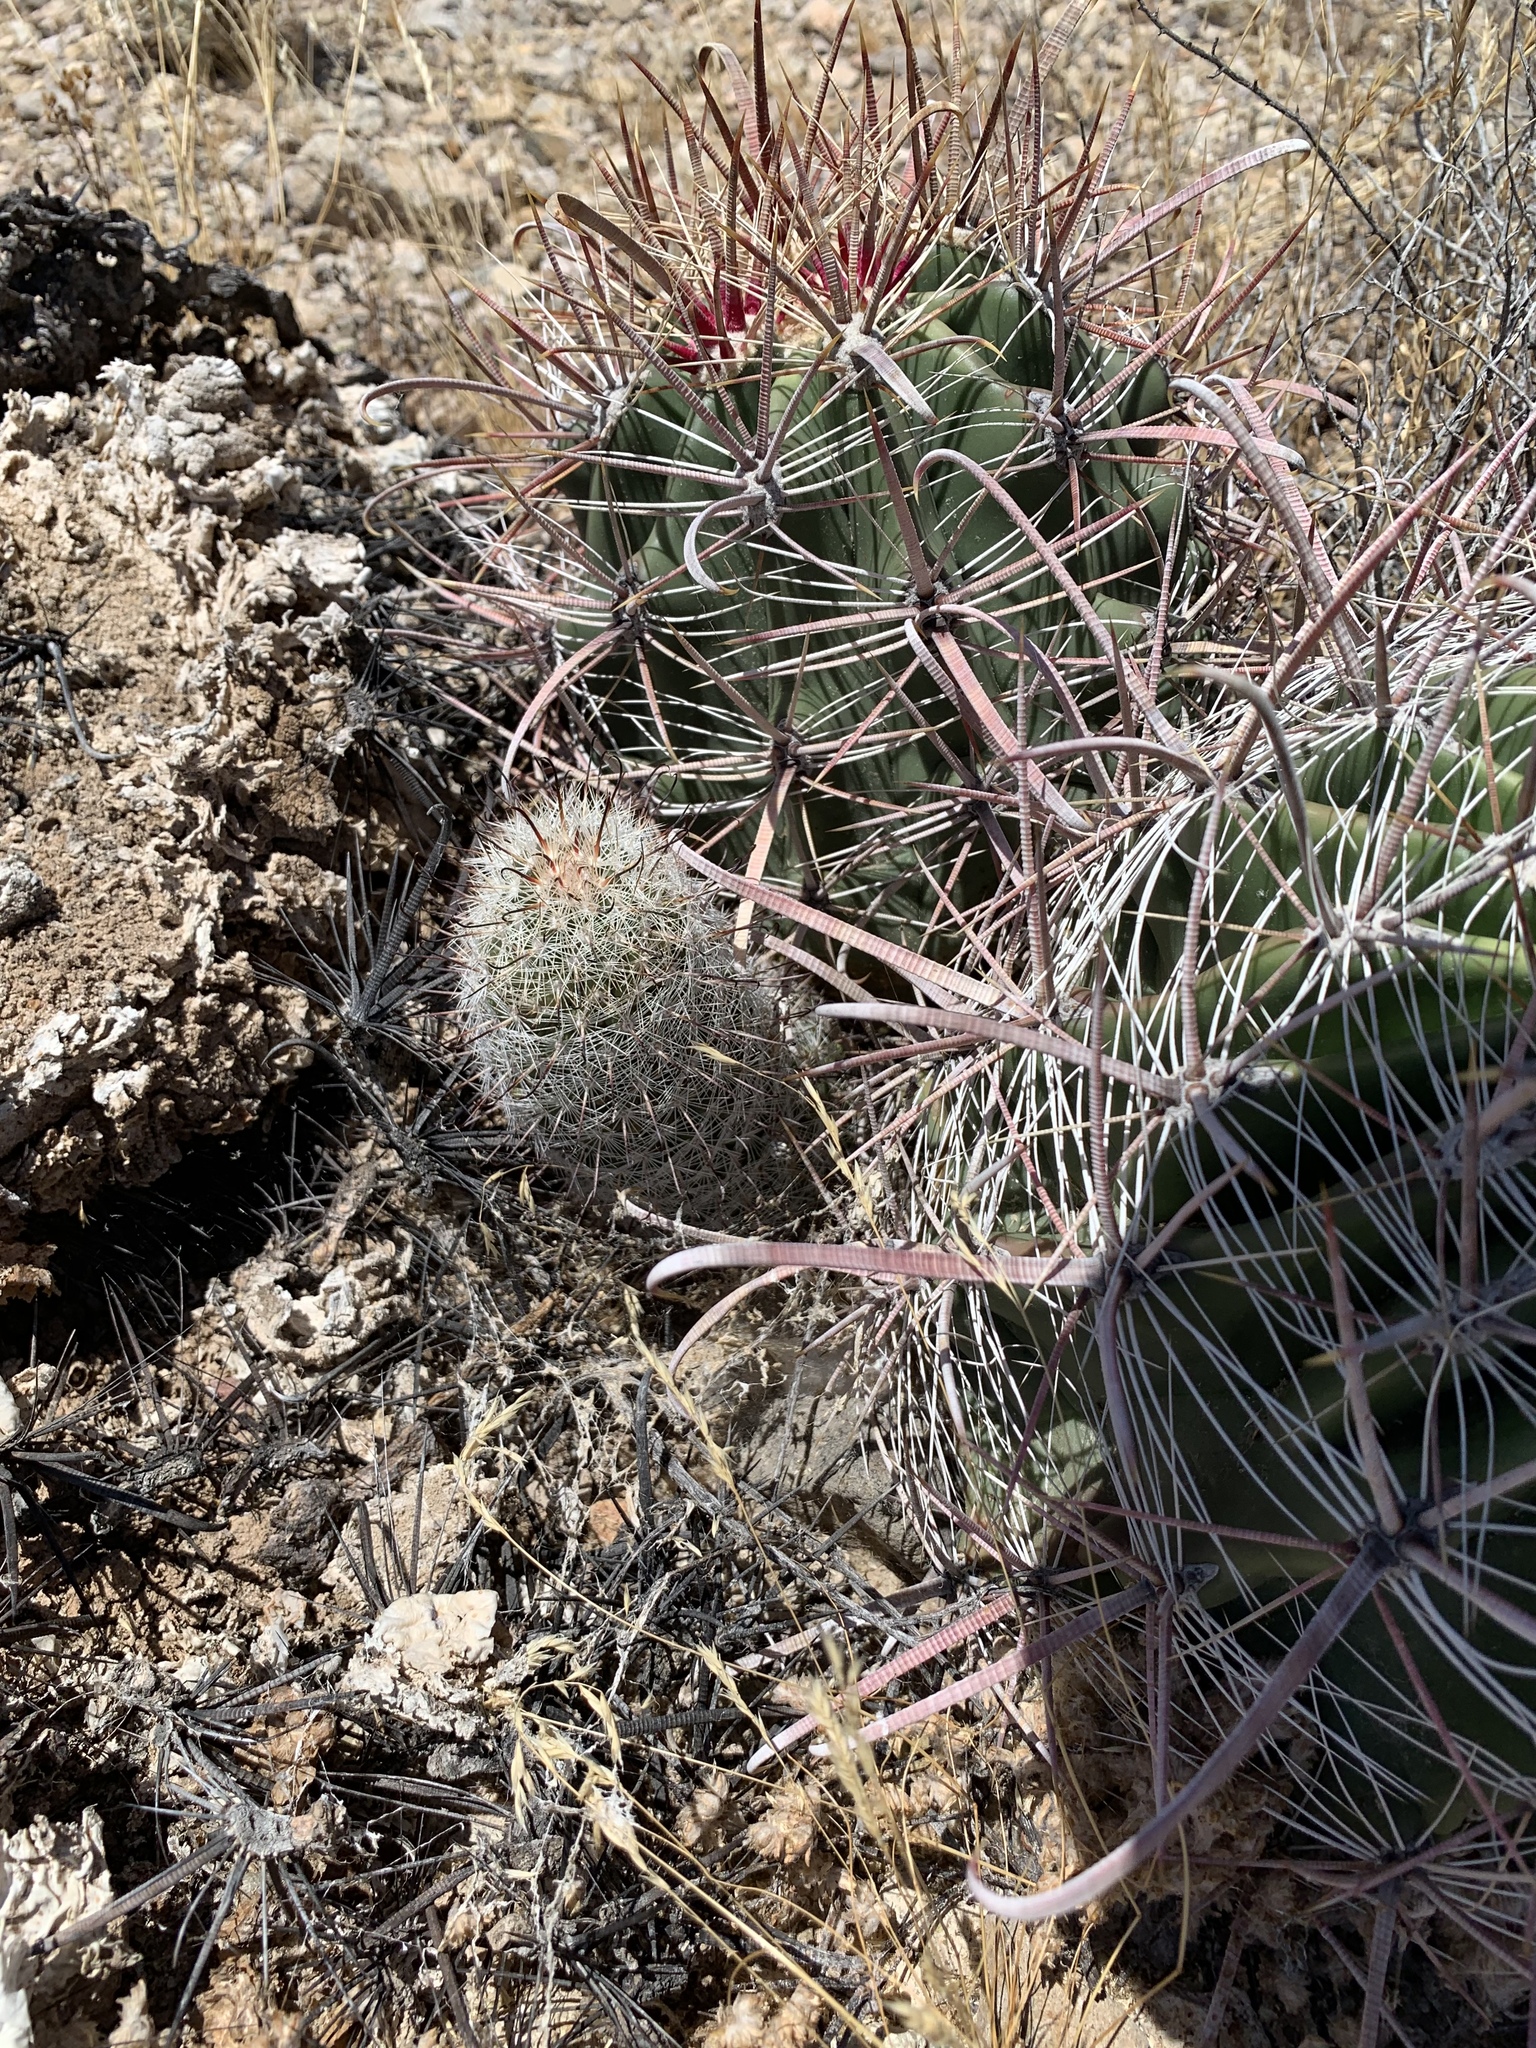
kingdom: Plantae
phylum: Tracheophyta
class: Magnoliopsida
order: Caryophyllales
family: Cactaceae
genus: Cochemiea
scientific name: Cochemiea grahamii
